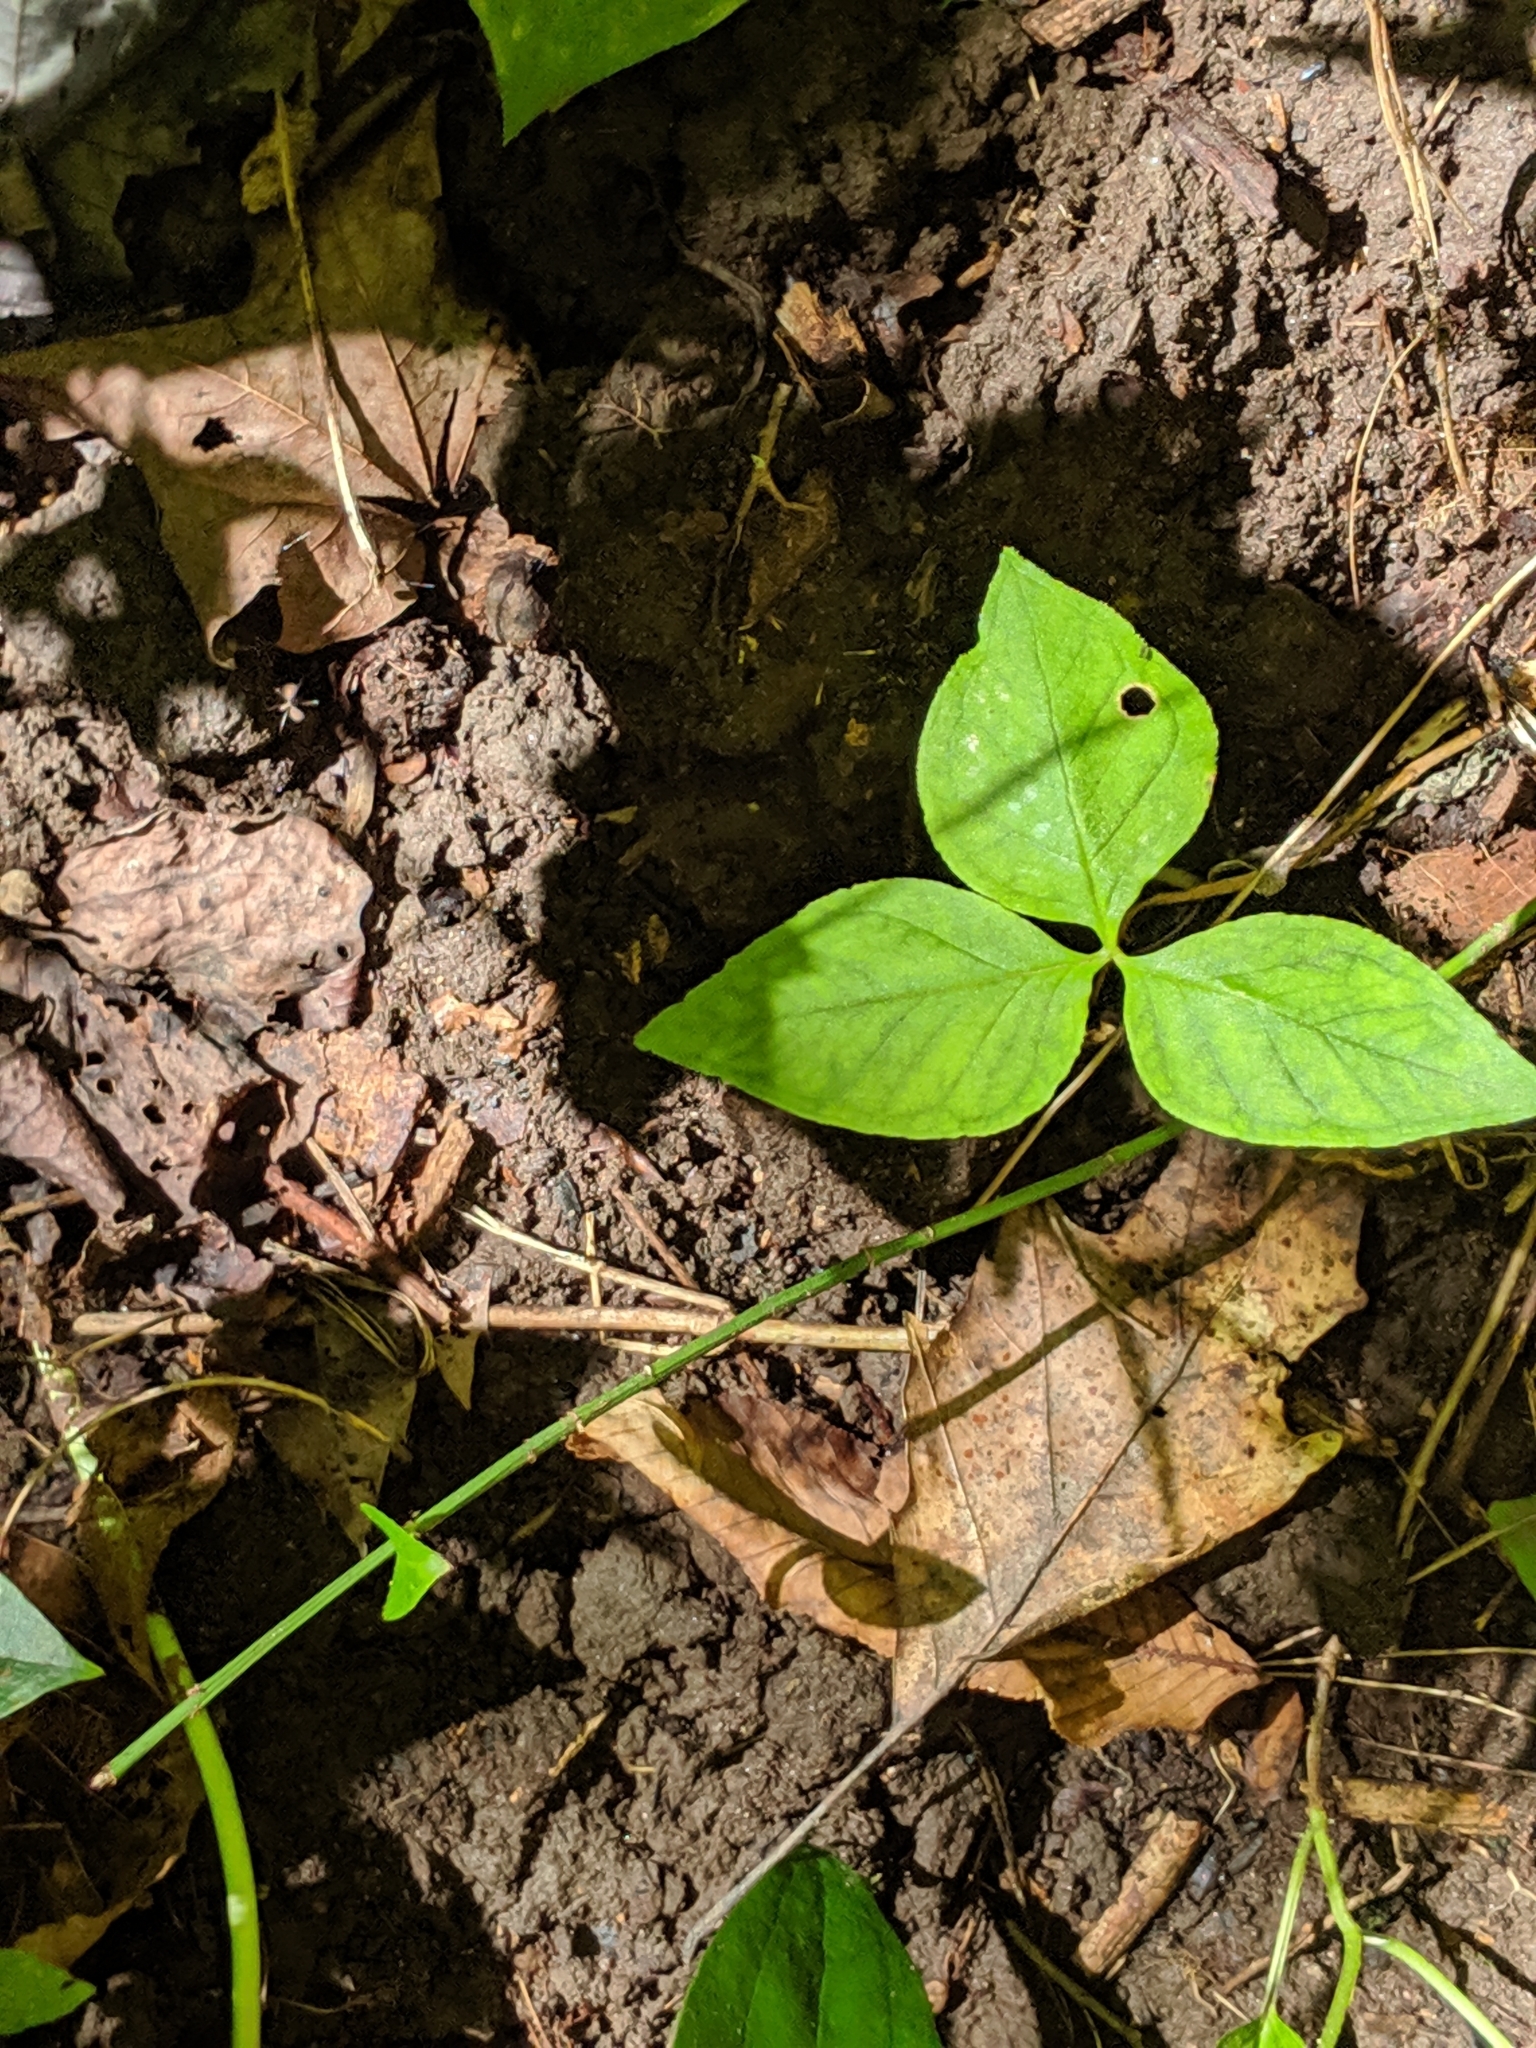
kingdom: Plantae
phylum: Tracheophyta
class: Liliopsida
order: Alismatales
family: Araceae
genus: Arisaema
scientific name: Arisaema triphyllum
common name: Jack-in-the-pulpit
